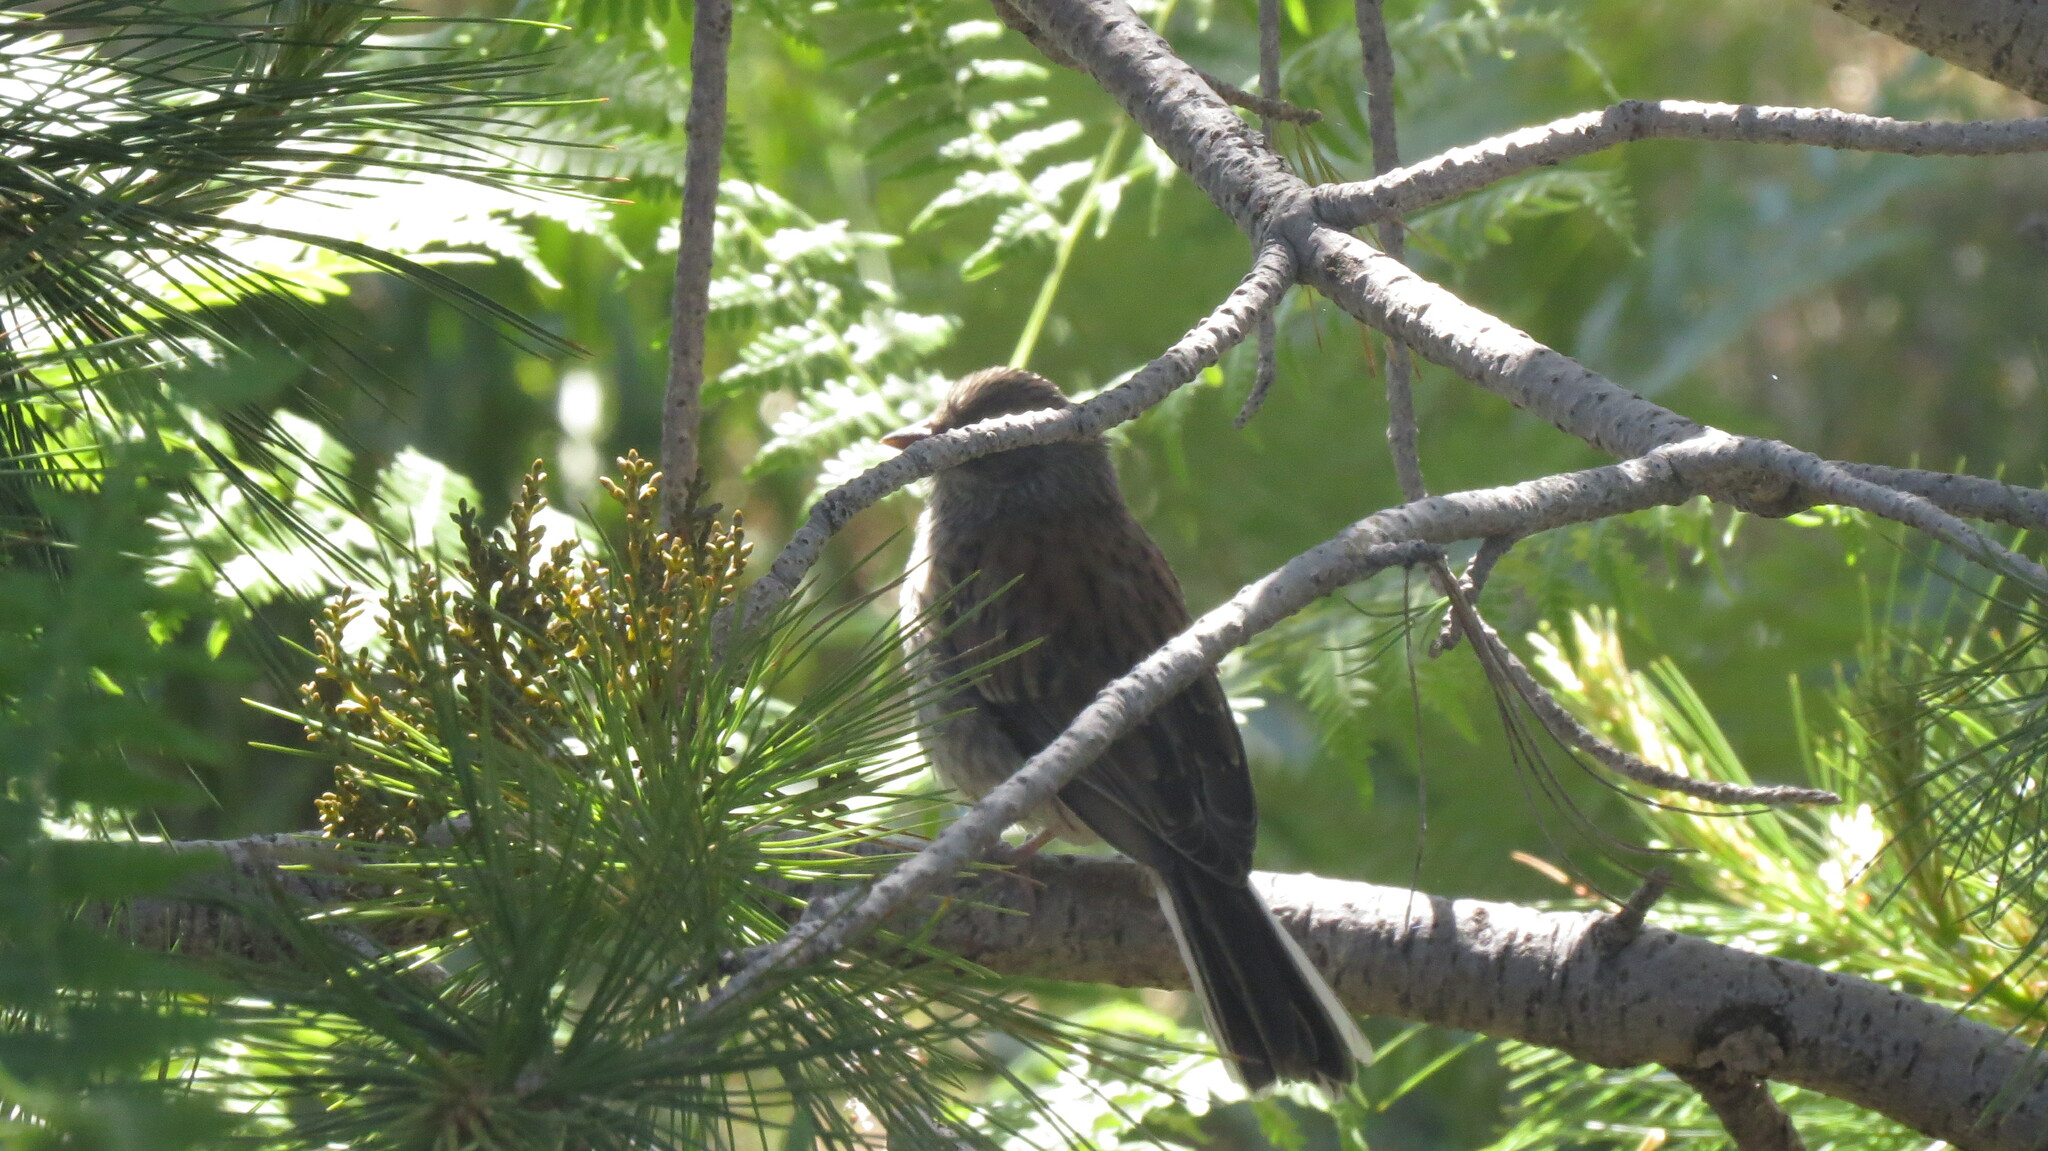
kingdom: Animalia
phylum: Chordata
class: Aves
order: Passeriformes
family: Passerellidae
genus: Junco
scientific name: Junco phaeonotus
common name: Yellow-eyed junco
